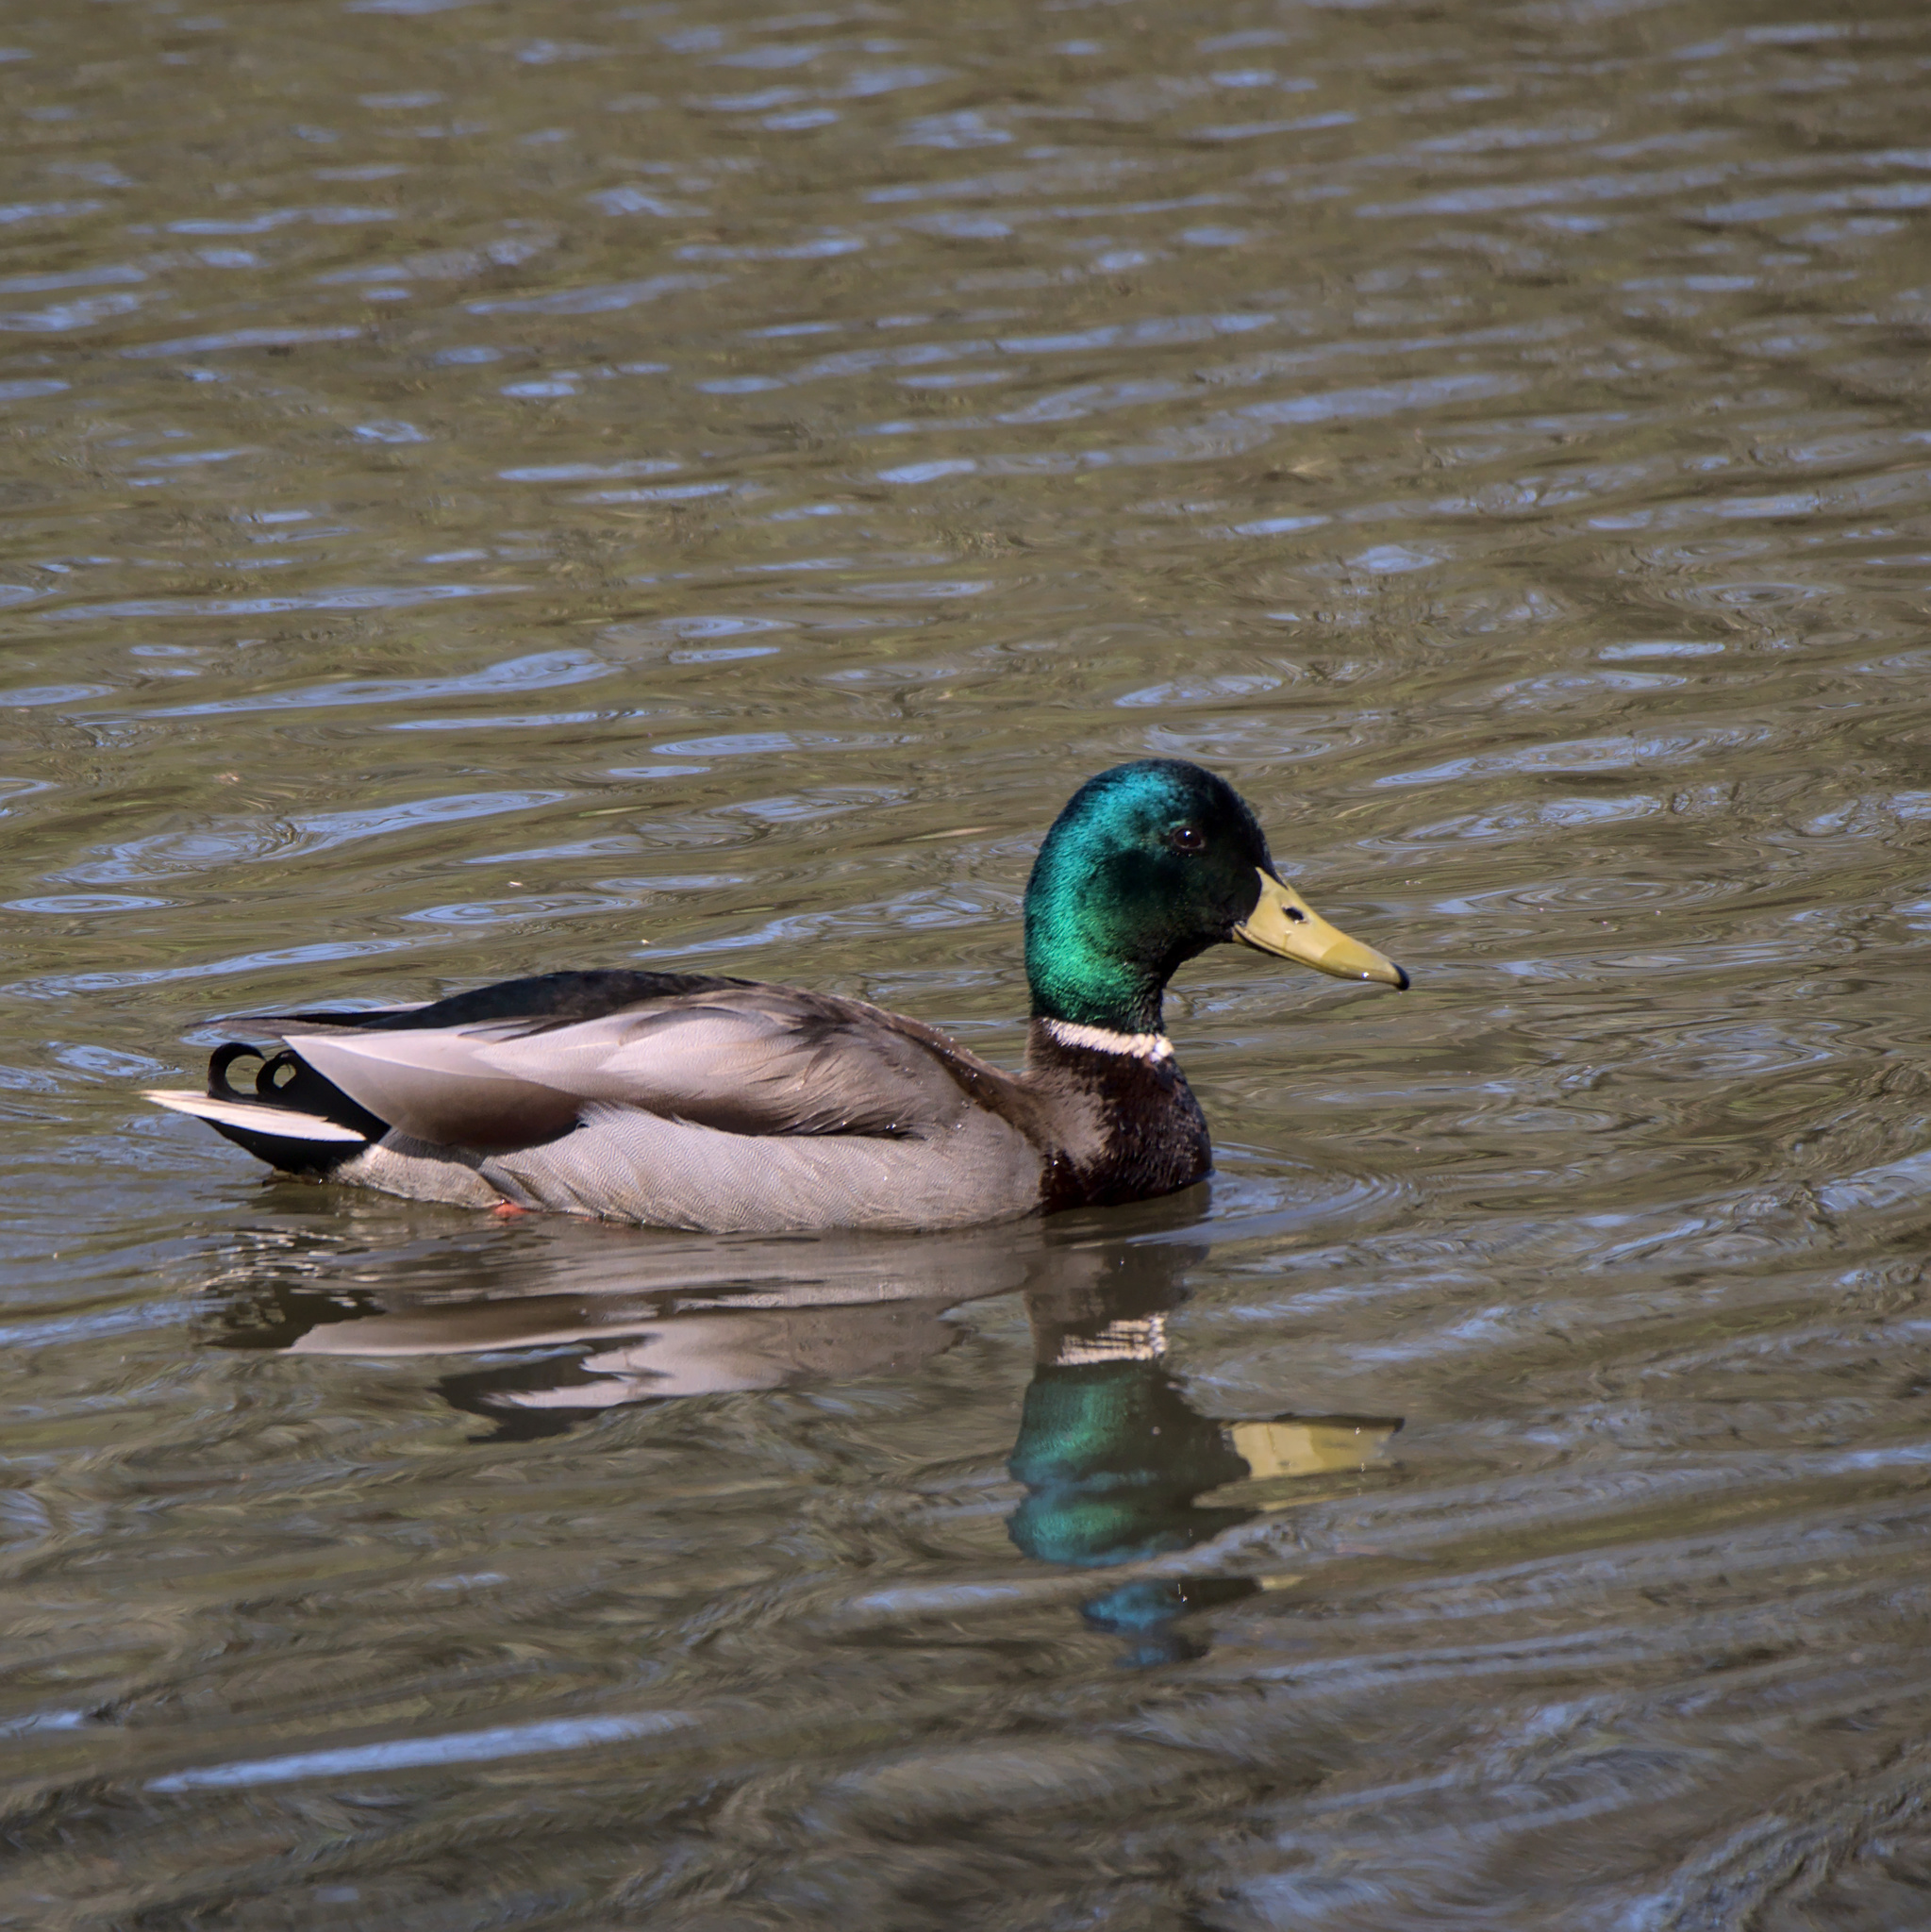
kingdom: Animalia
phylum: Chordata
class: Aves
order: Anseriformes
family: Anatidae
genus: Anas
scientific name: Anas platyrhynchos
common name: Mallard
